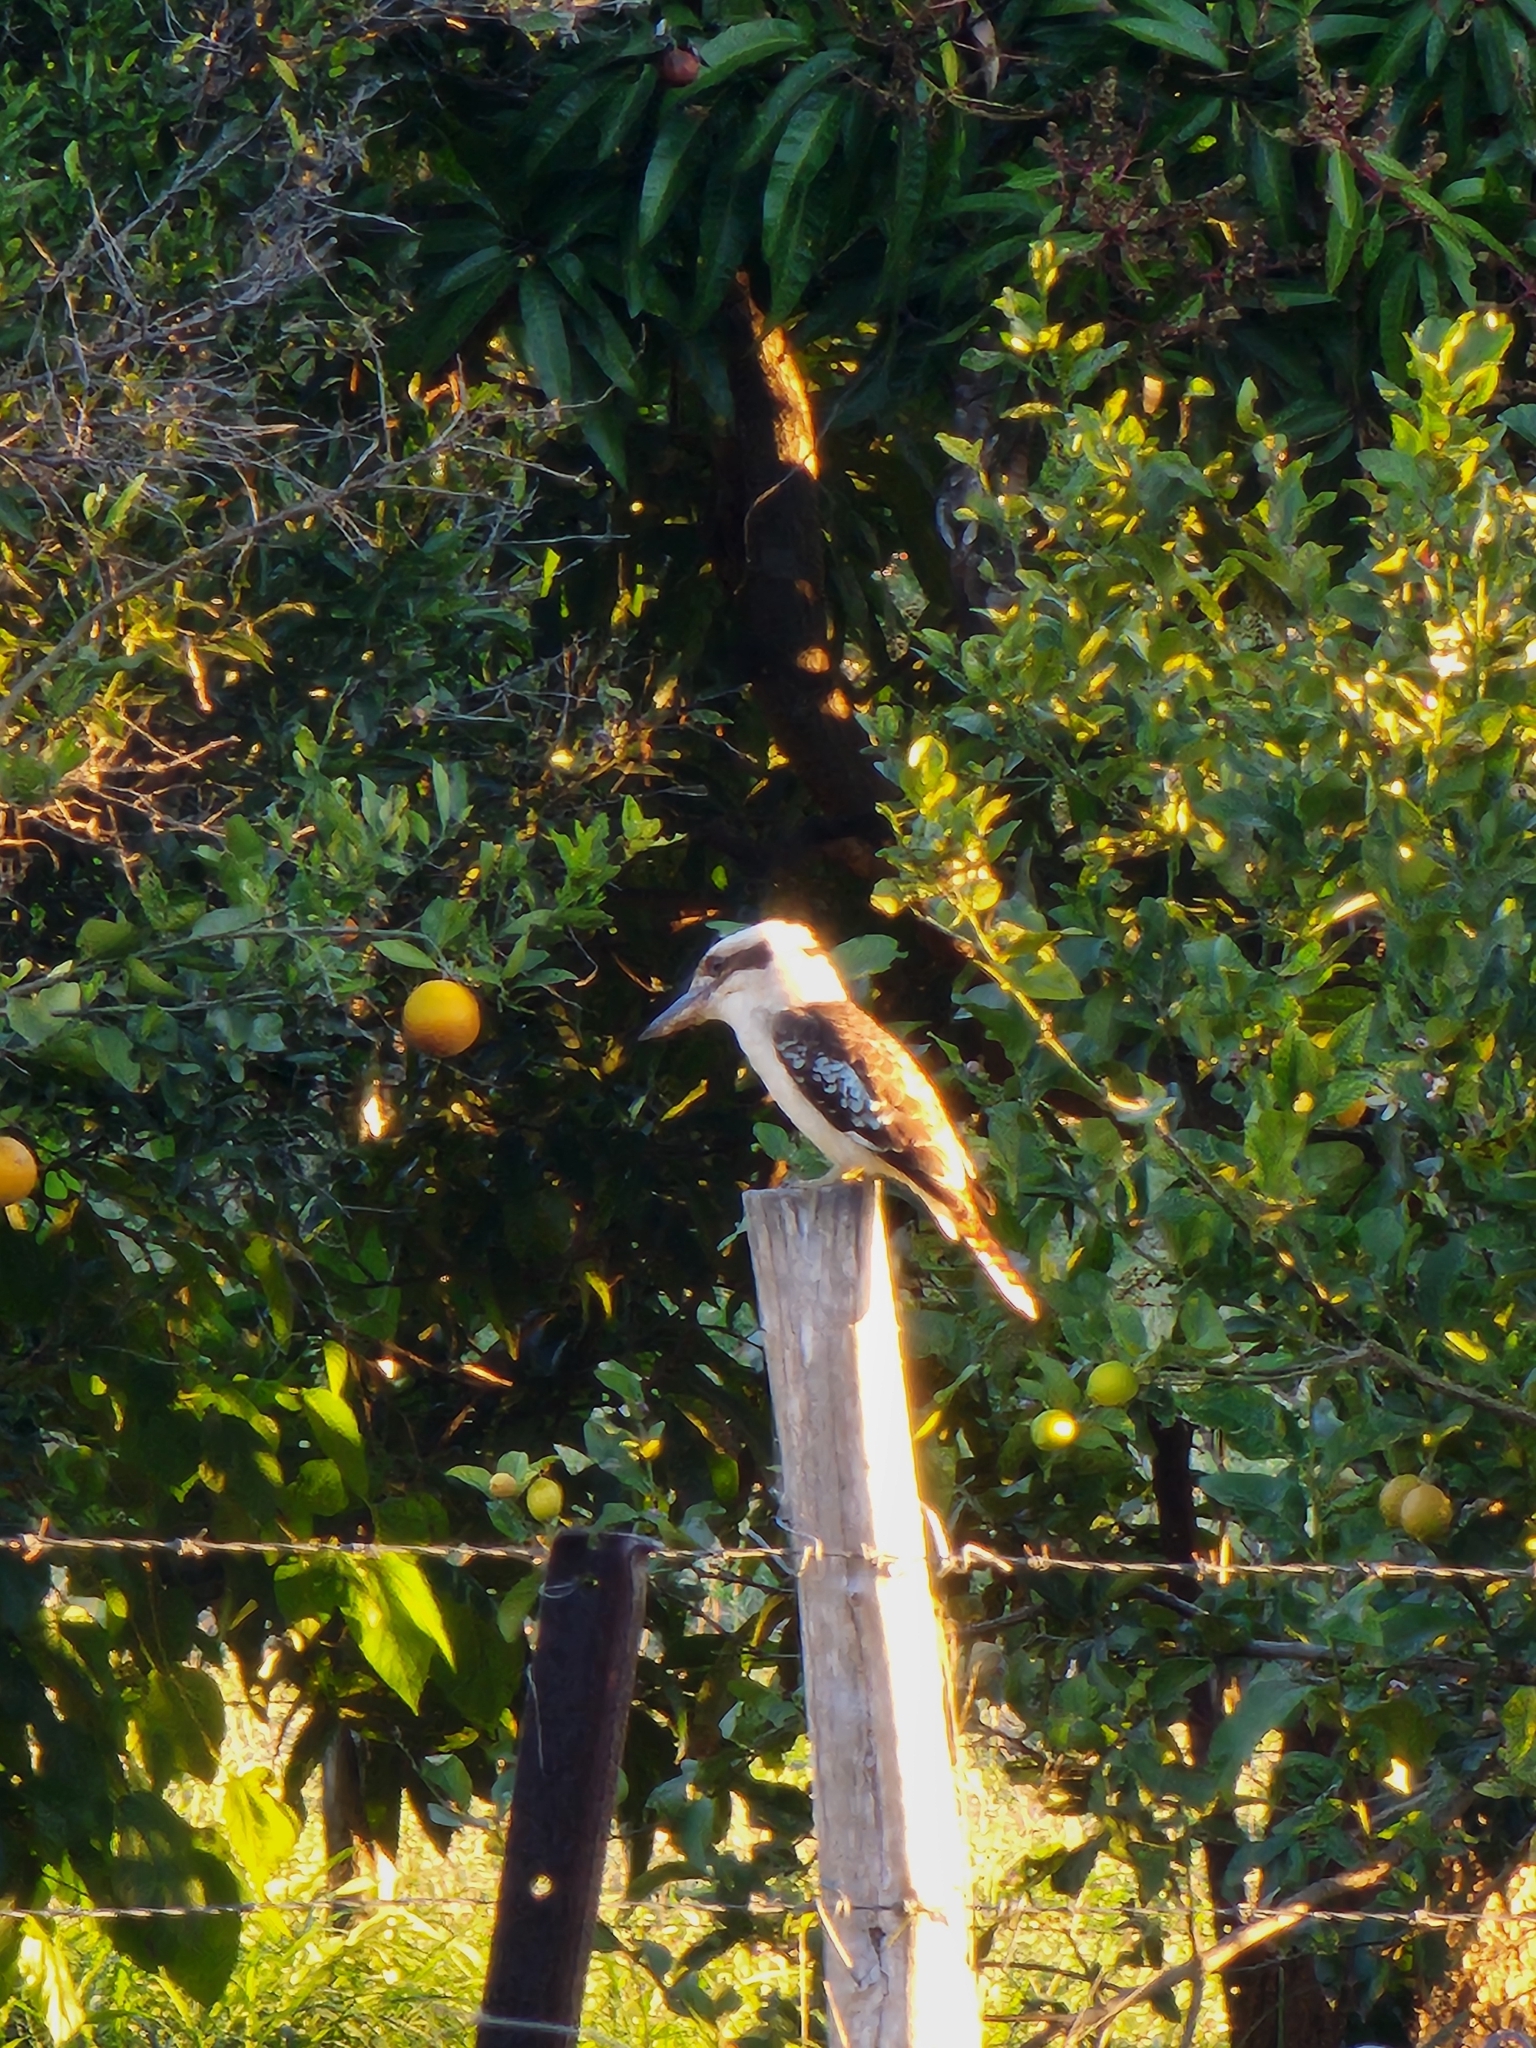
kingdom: Animalia
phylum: Chordata
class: Aves
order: Coraciiformes
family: Alcedinidae
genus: Dacelo
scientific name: Dacelo novaeguineae
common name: Laughing kookaburra
